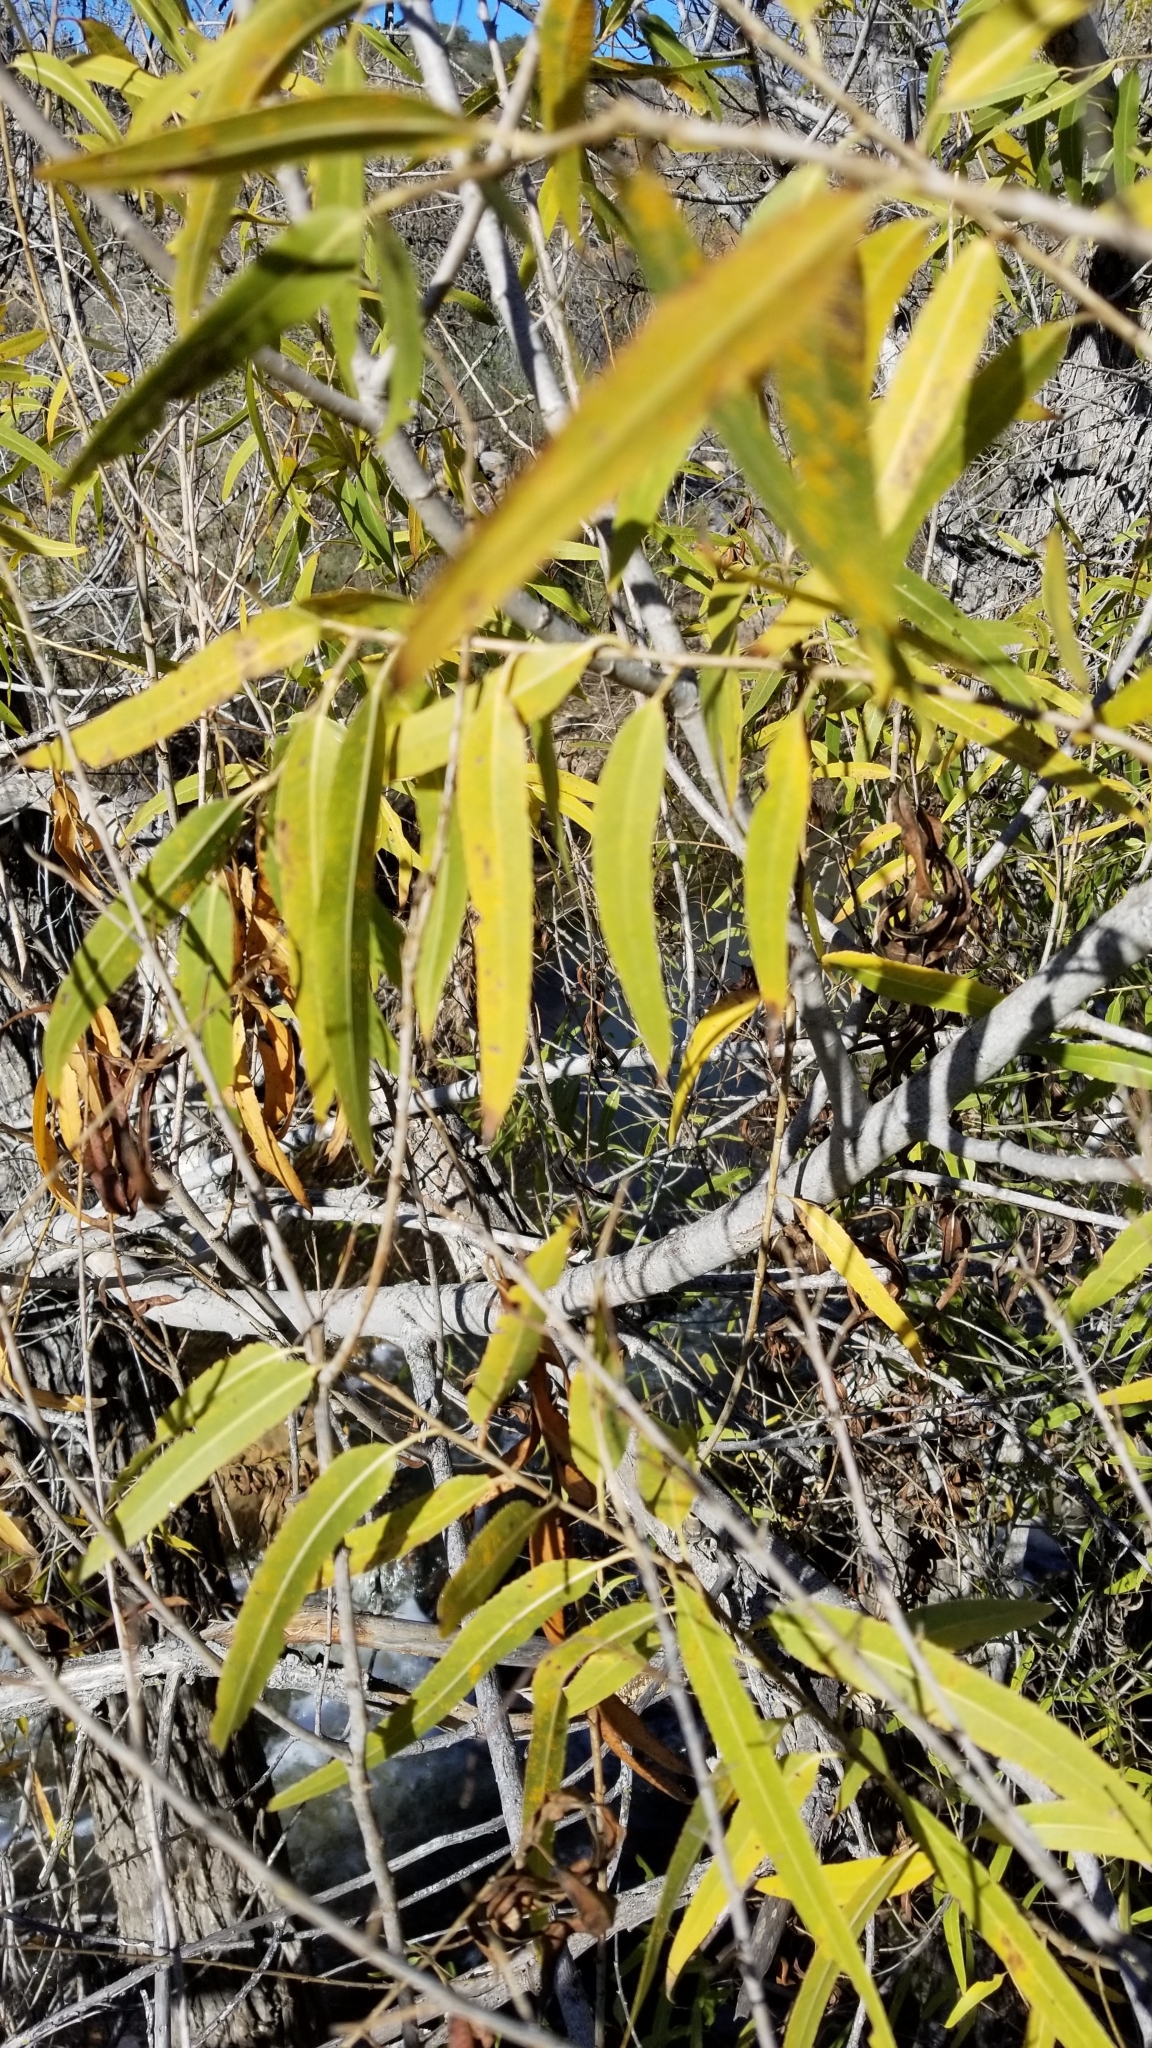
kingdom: Plantae
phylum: Tracheophyta
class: Magnoliopsida
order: Malpighiales
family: Salicaceae
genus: Salix
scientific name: Salix gooddingii
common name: Goodding's willow
